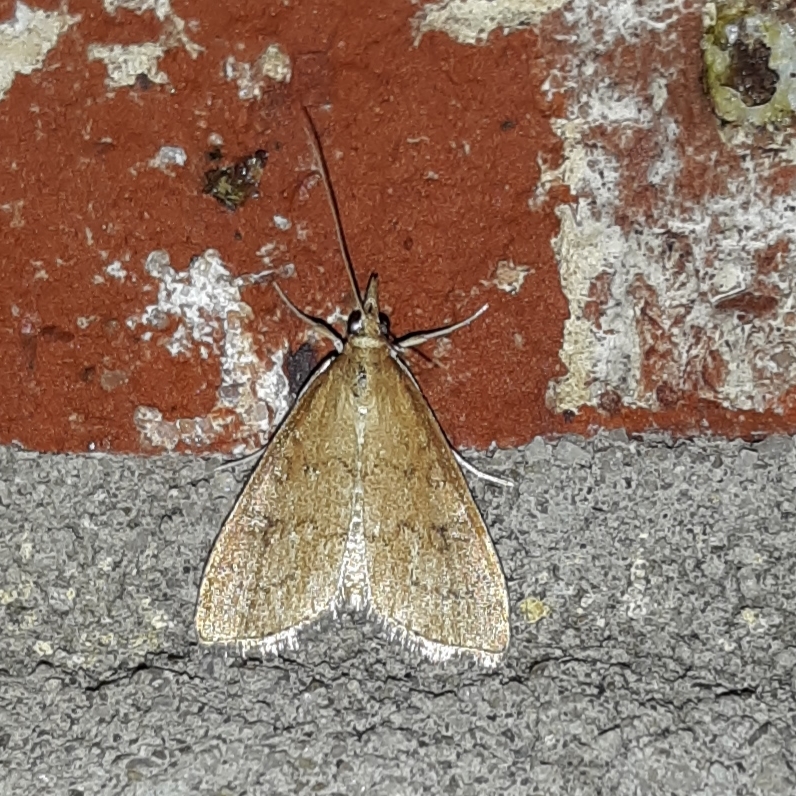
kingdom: Animalia
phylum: Arthropoda
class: Insecta
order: Lepidoptera
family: Crambidae
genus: Udea
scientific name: Udea rubigalis
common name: Celery leaftier moth
